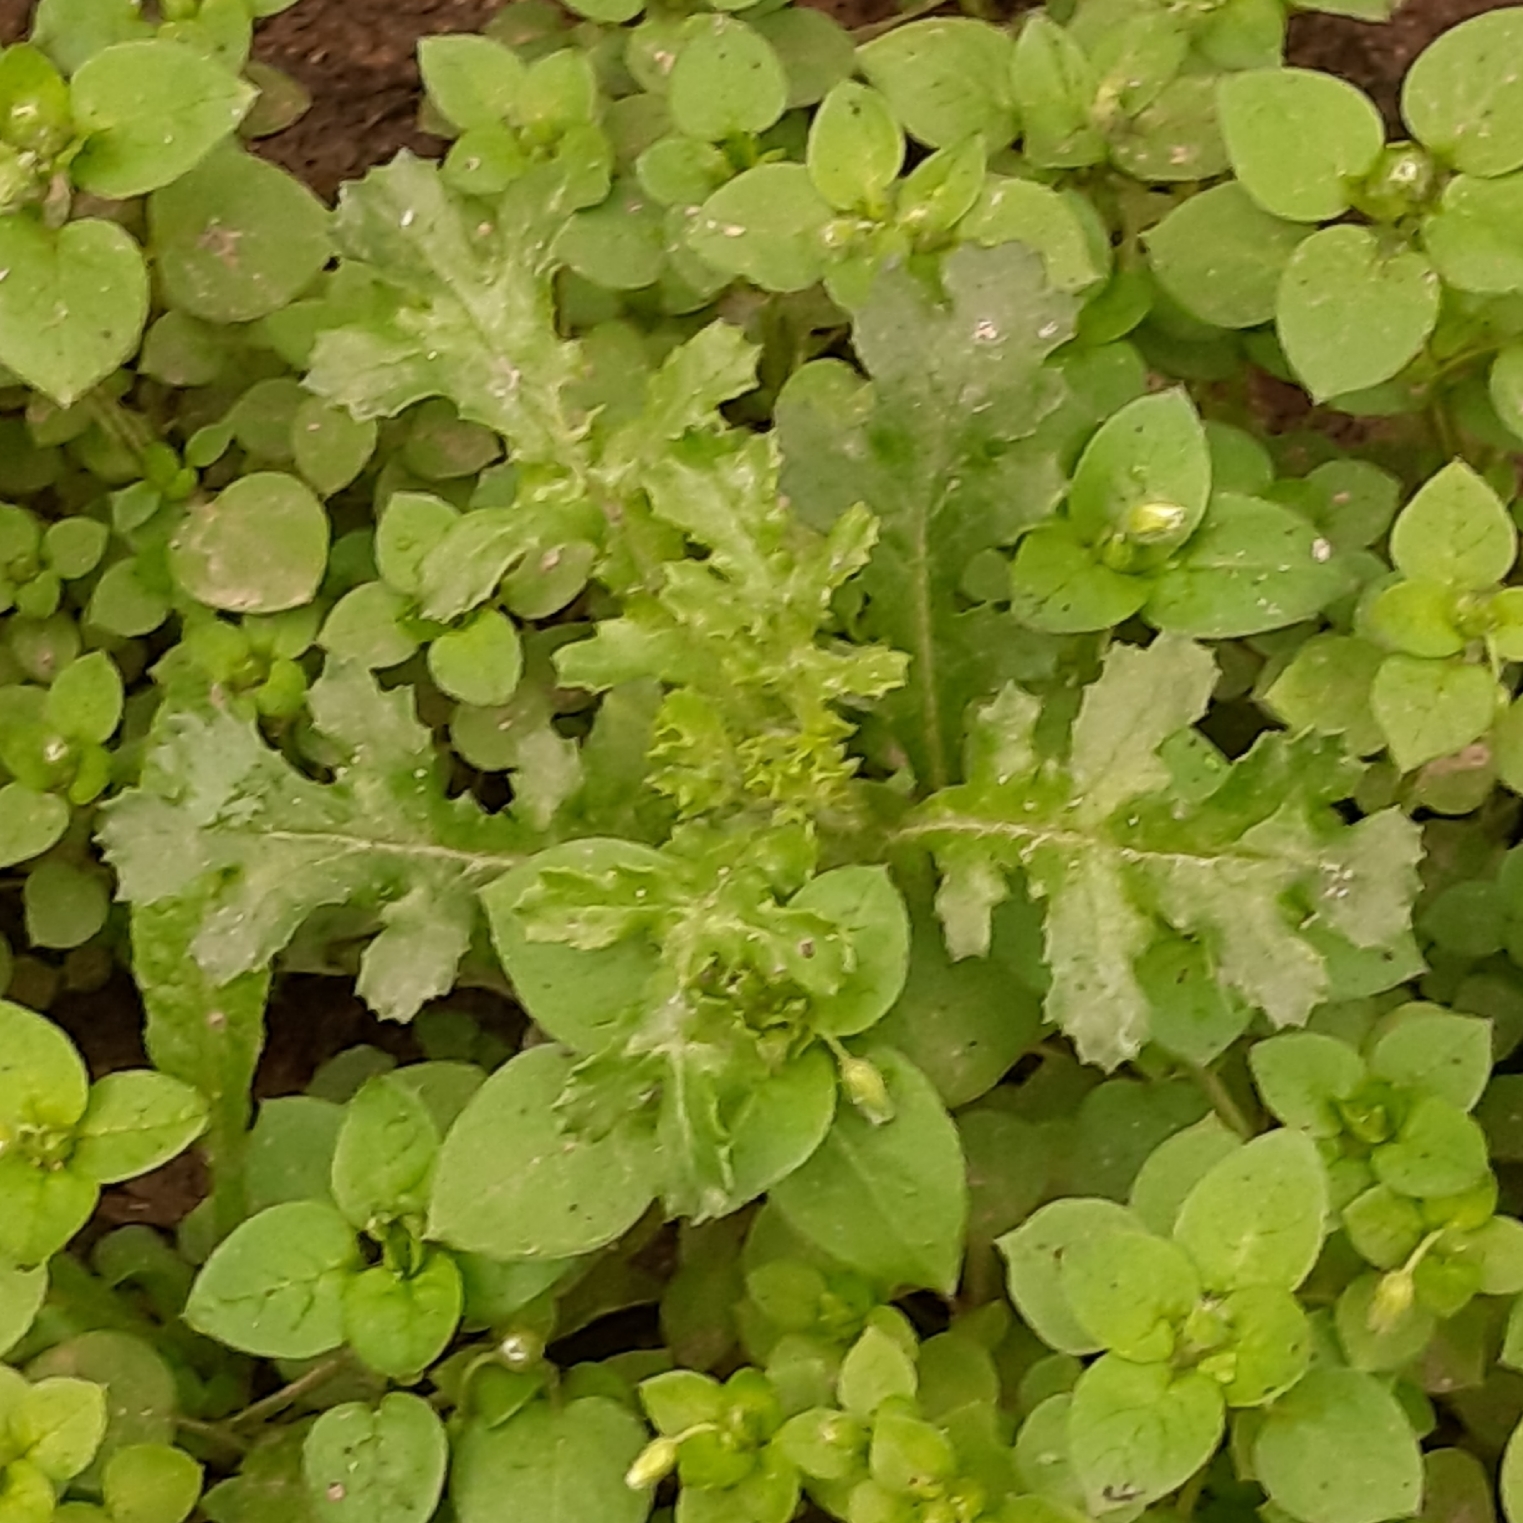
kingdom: Plantae
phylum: Tracheophyta
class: Magnoliopsida
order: Asterales
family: Asteraceae
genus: Senecio
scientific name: Senecio vulgaris
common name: Old-man-in-the-spring
